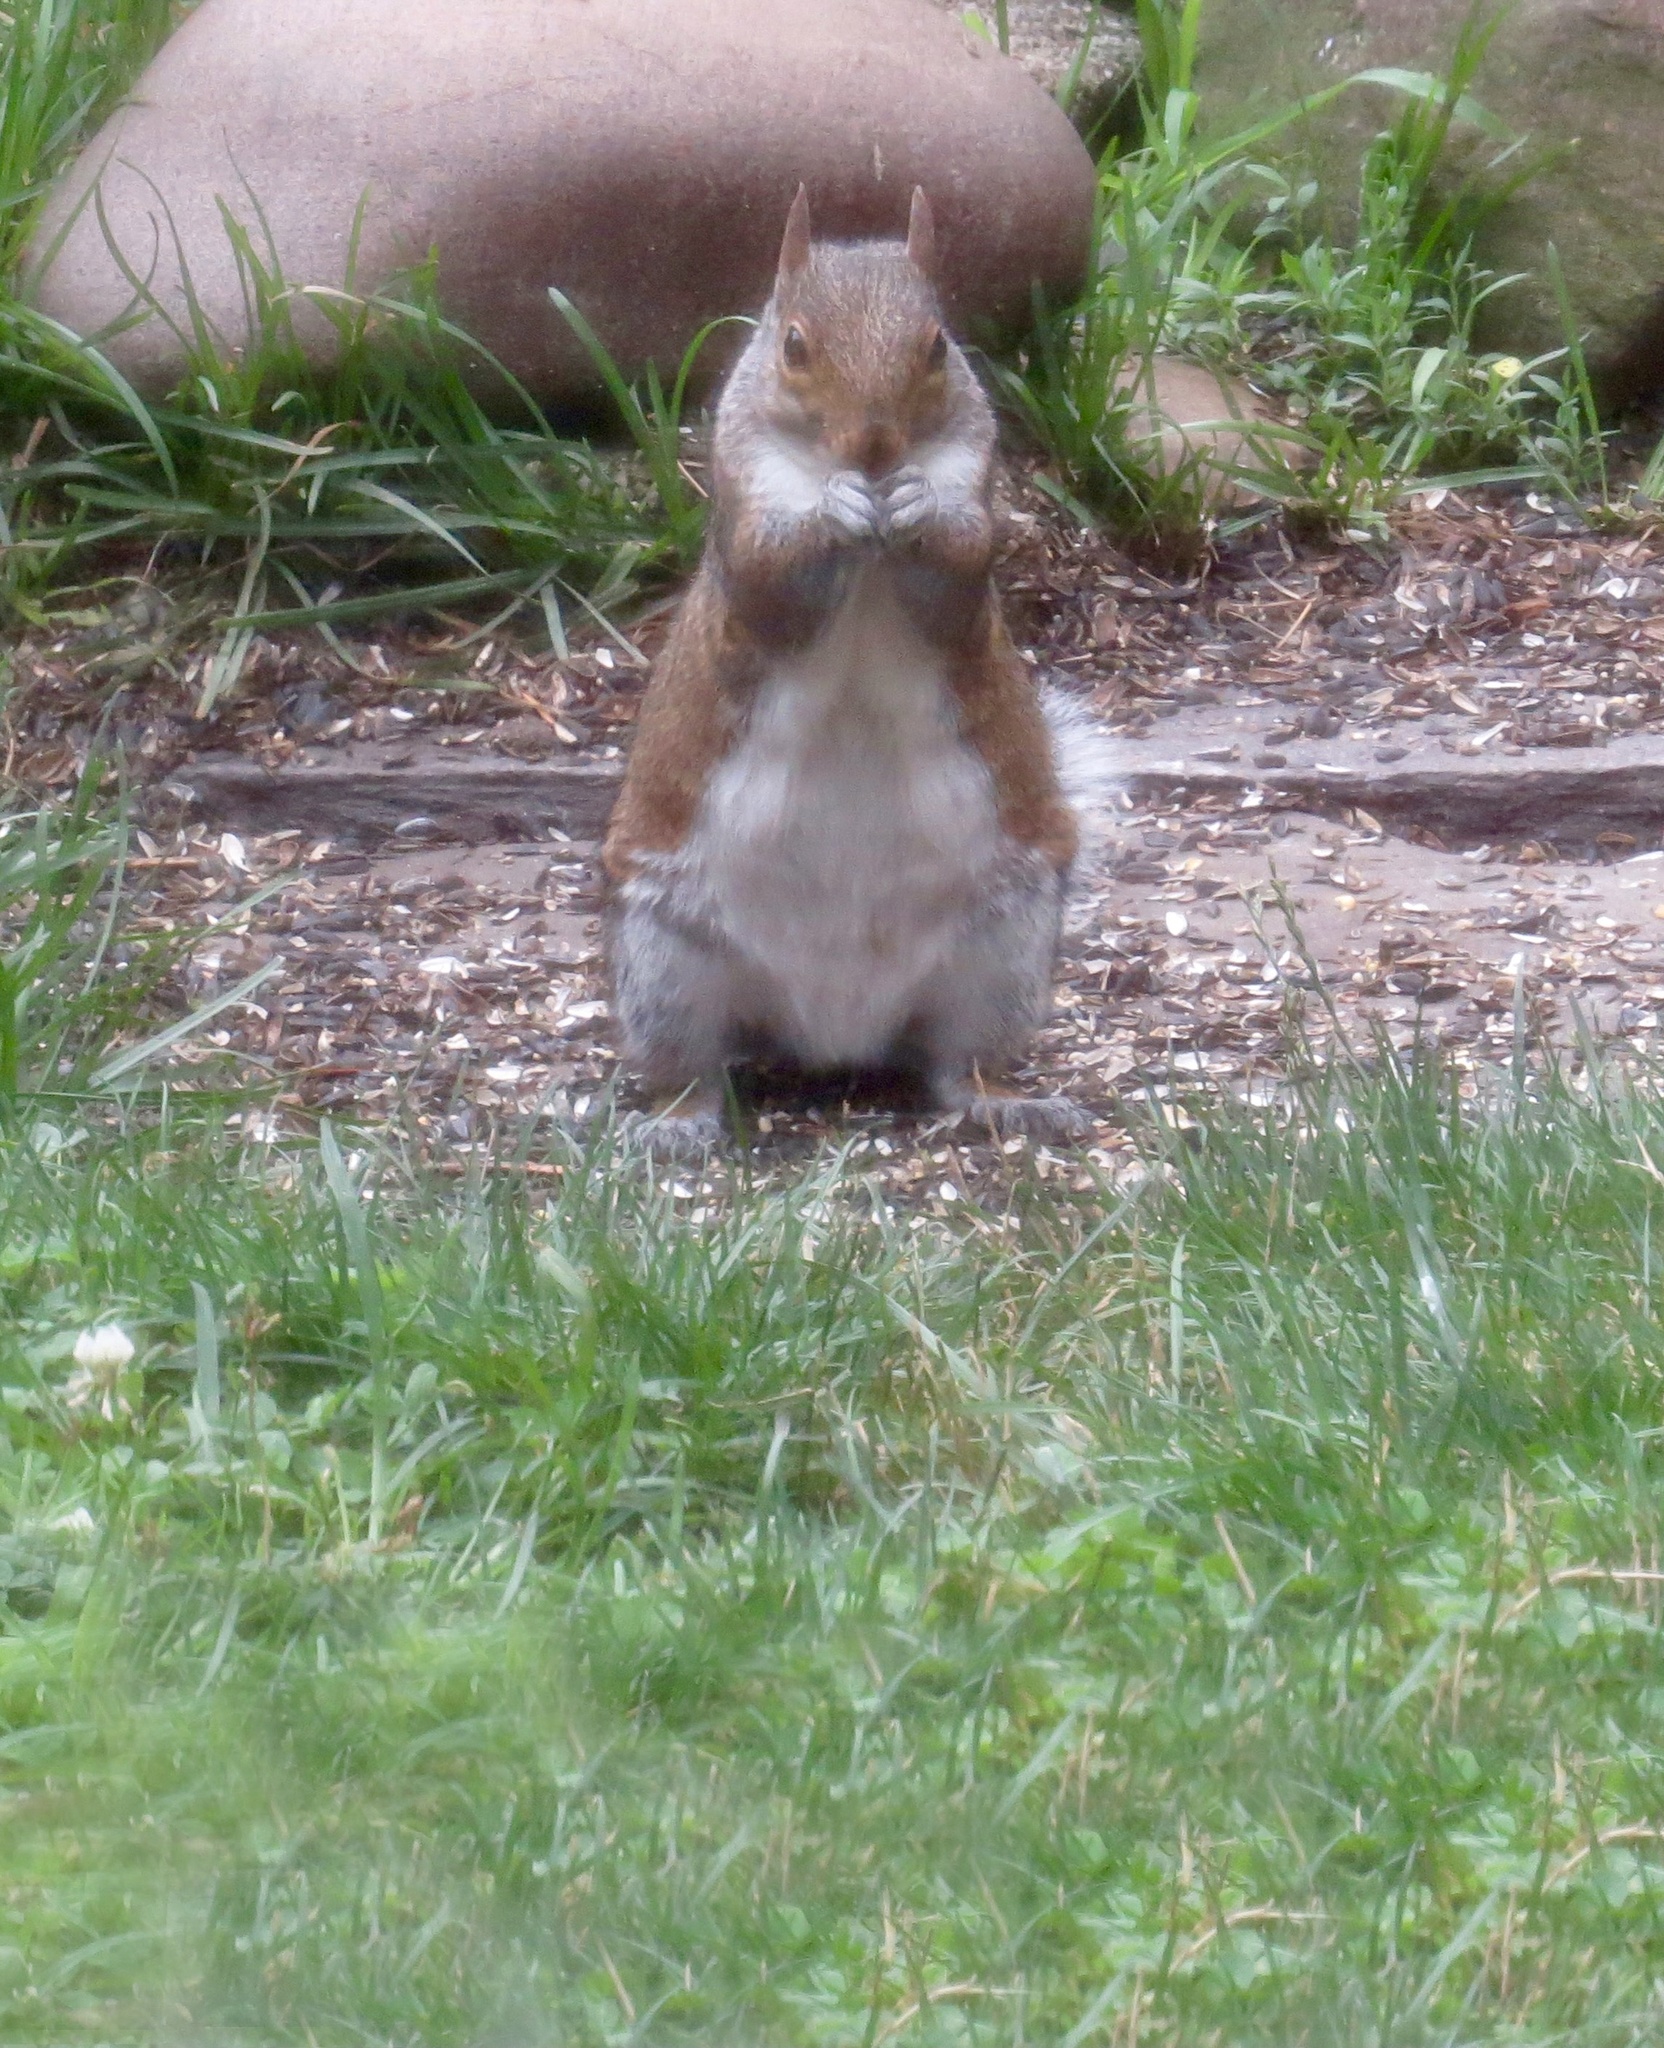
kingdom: Animalia
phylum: Chordata
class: Mammalia
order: Rodentia
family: Sciuridae
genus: Sciurus
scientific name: Sciurus carolinensis
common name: Eastern gray squirrel
